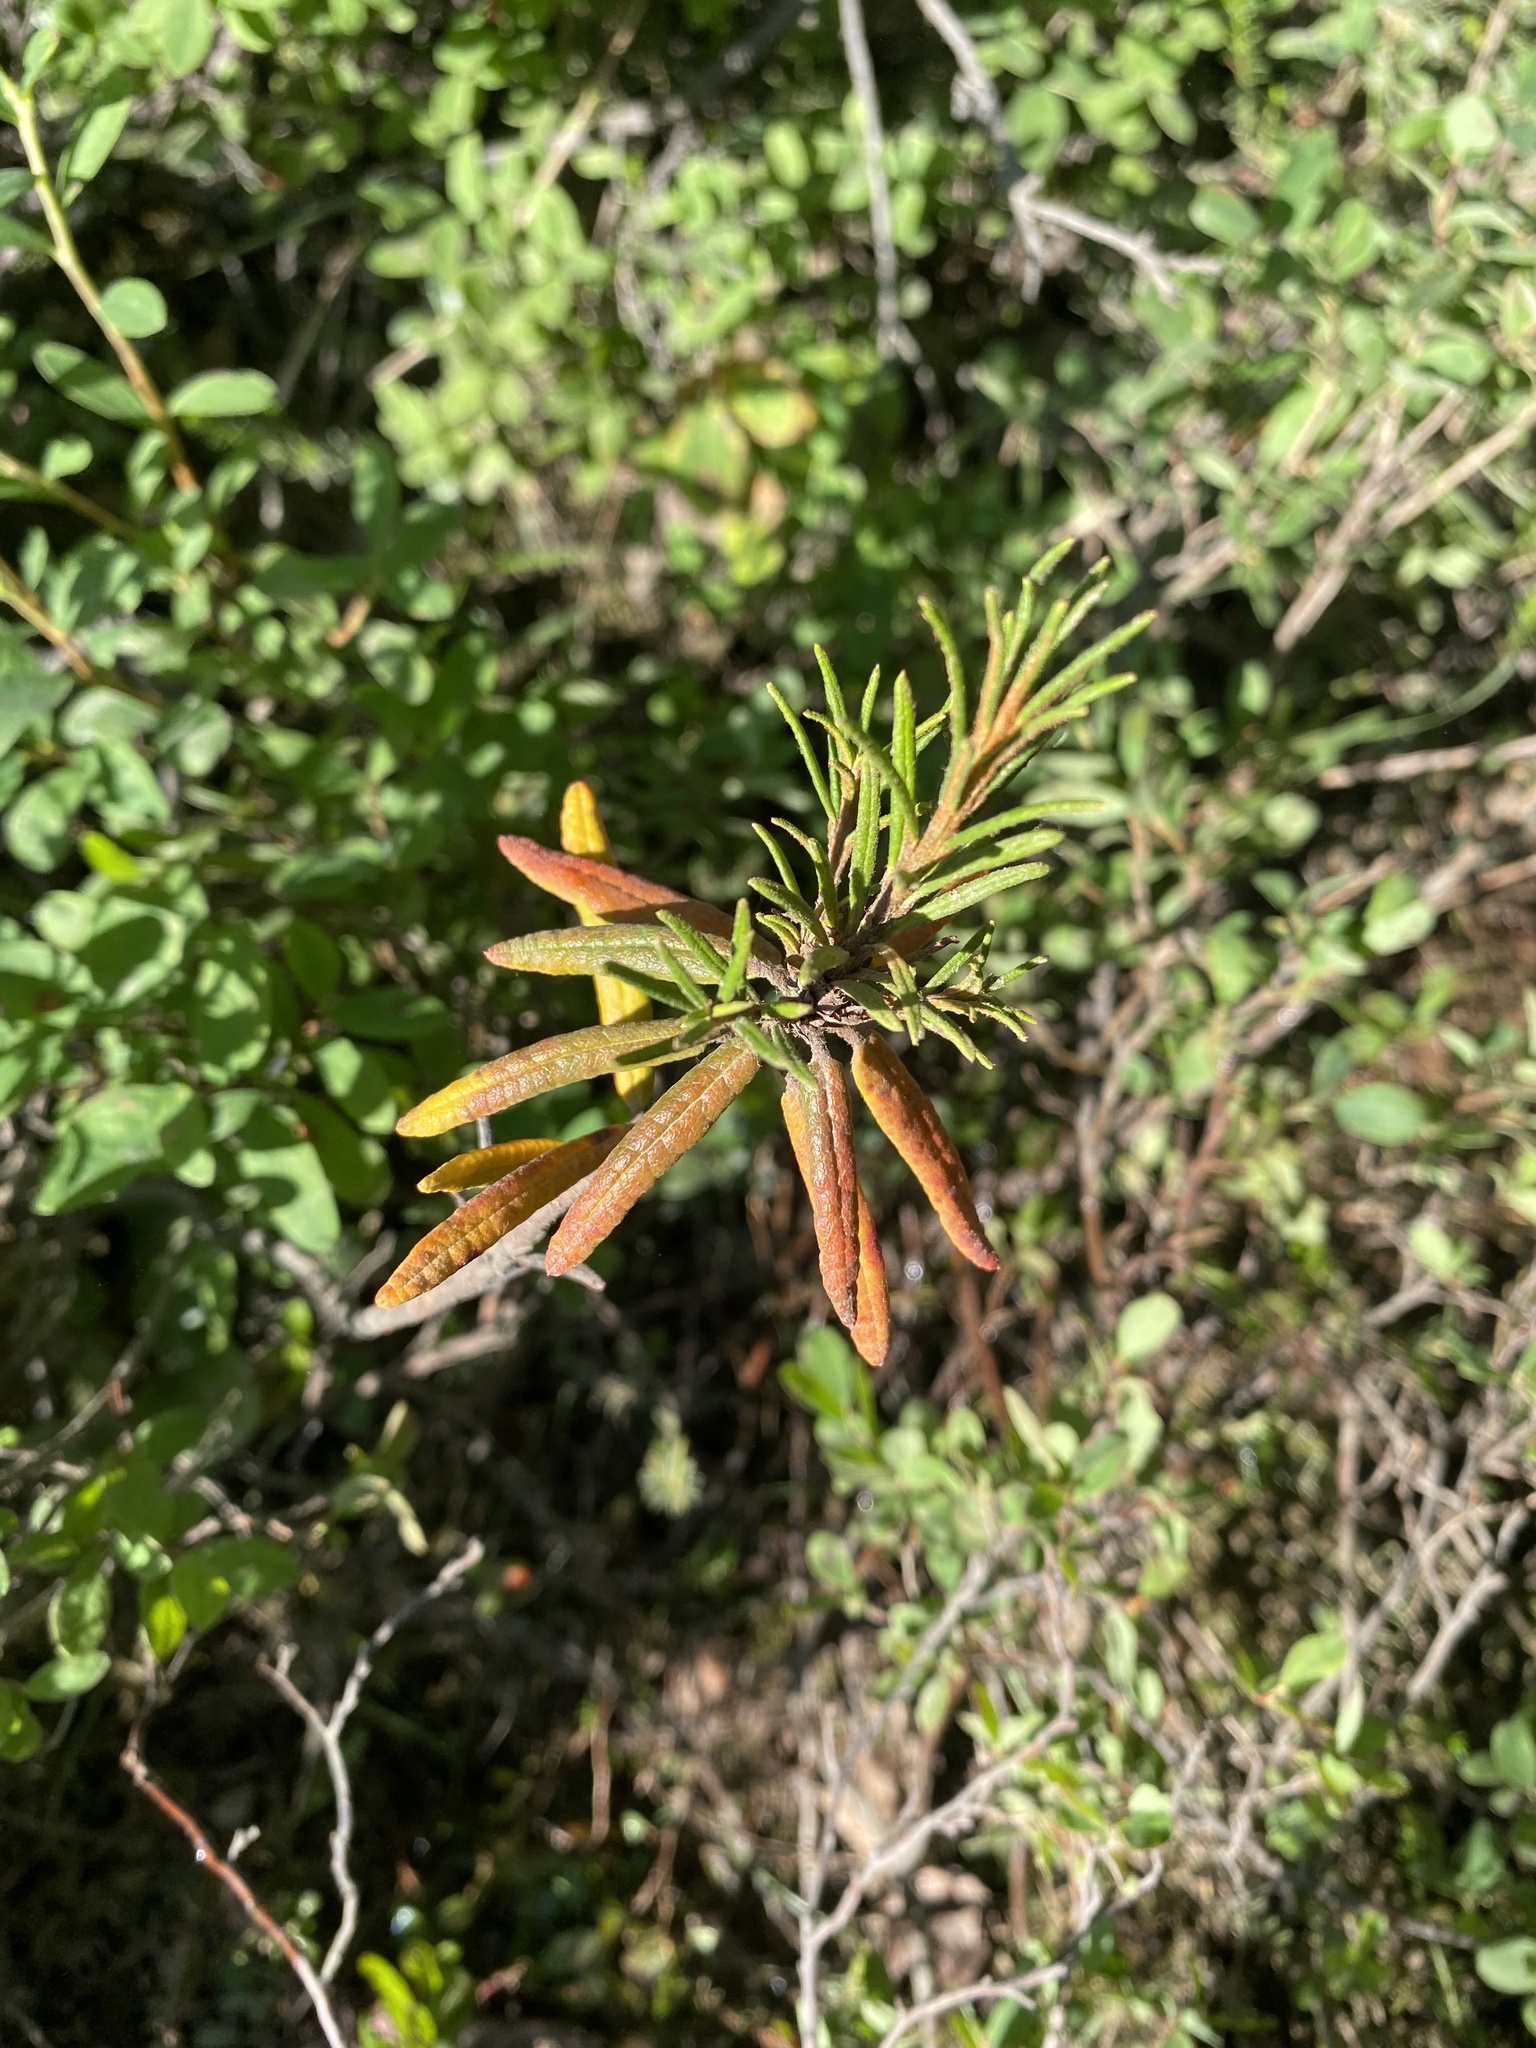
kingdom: Plantae
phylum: Tracheophyta
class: Magnoliopsida
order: Ericales
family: Ericaceae
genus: Rhododendron
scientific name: Rhododendron tomentosum
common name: Marsh labrador tea
